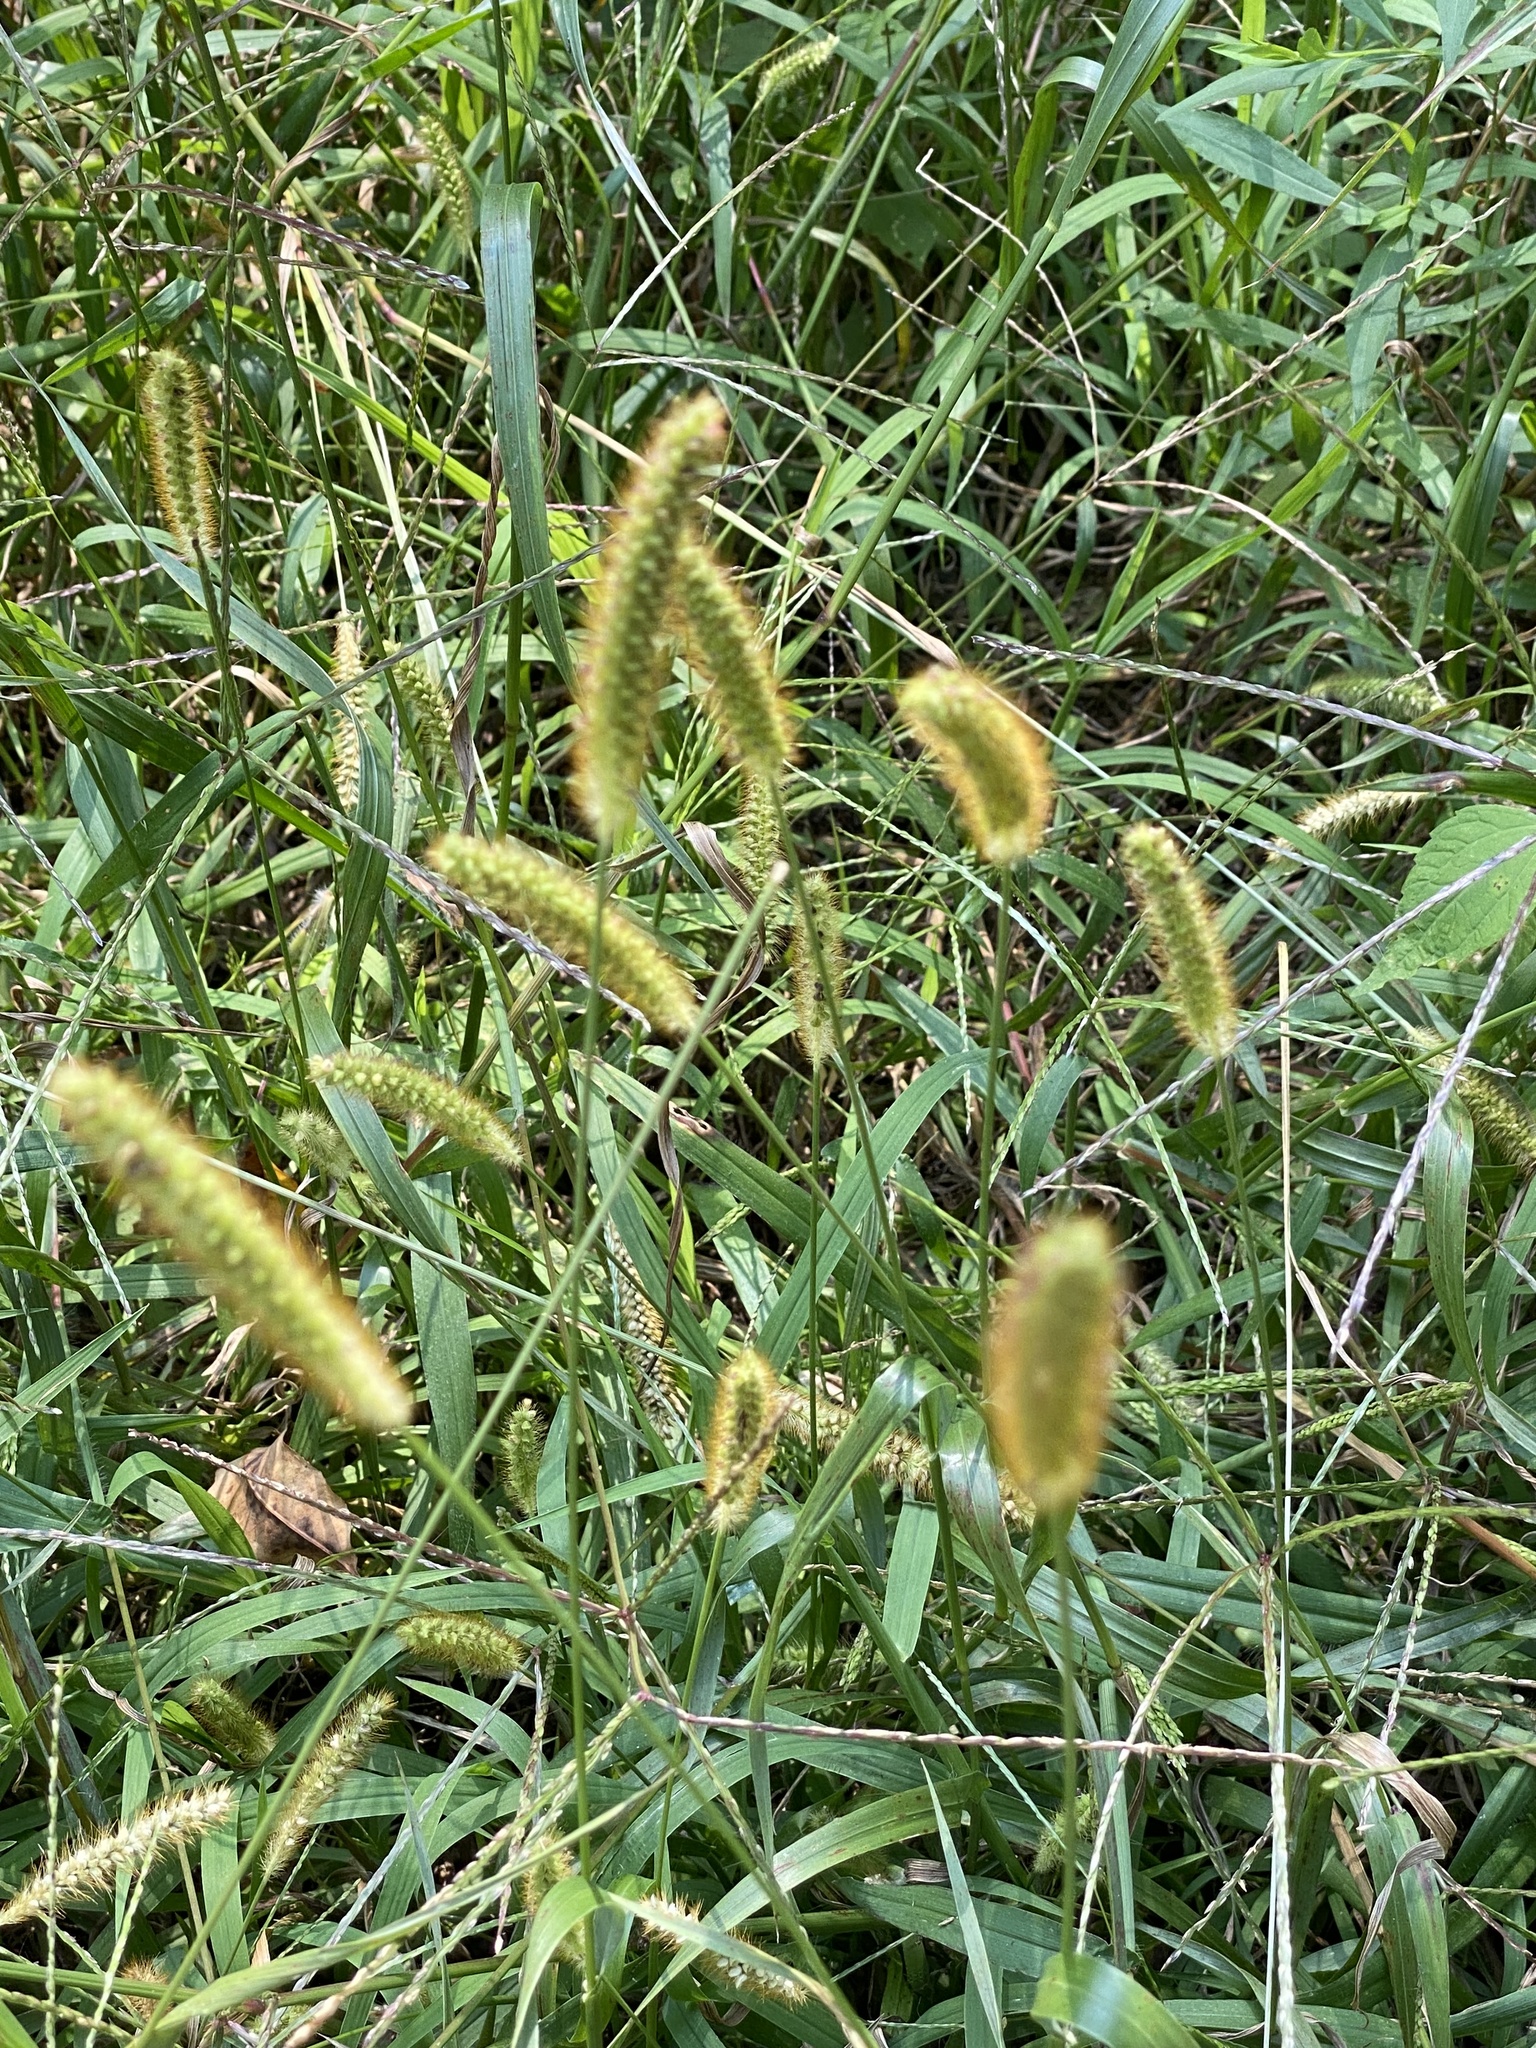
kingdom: Plantae
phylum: Tracheophyta
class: Liliopsida
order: Poales
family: Poaceae
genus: Setaria
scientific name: Setaria pumila
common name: Yellow bristle-grass
